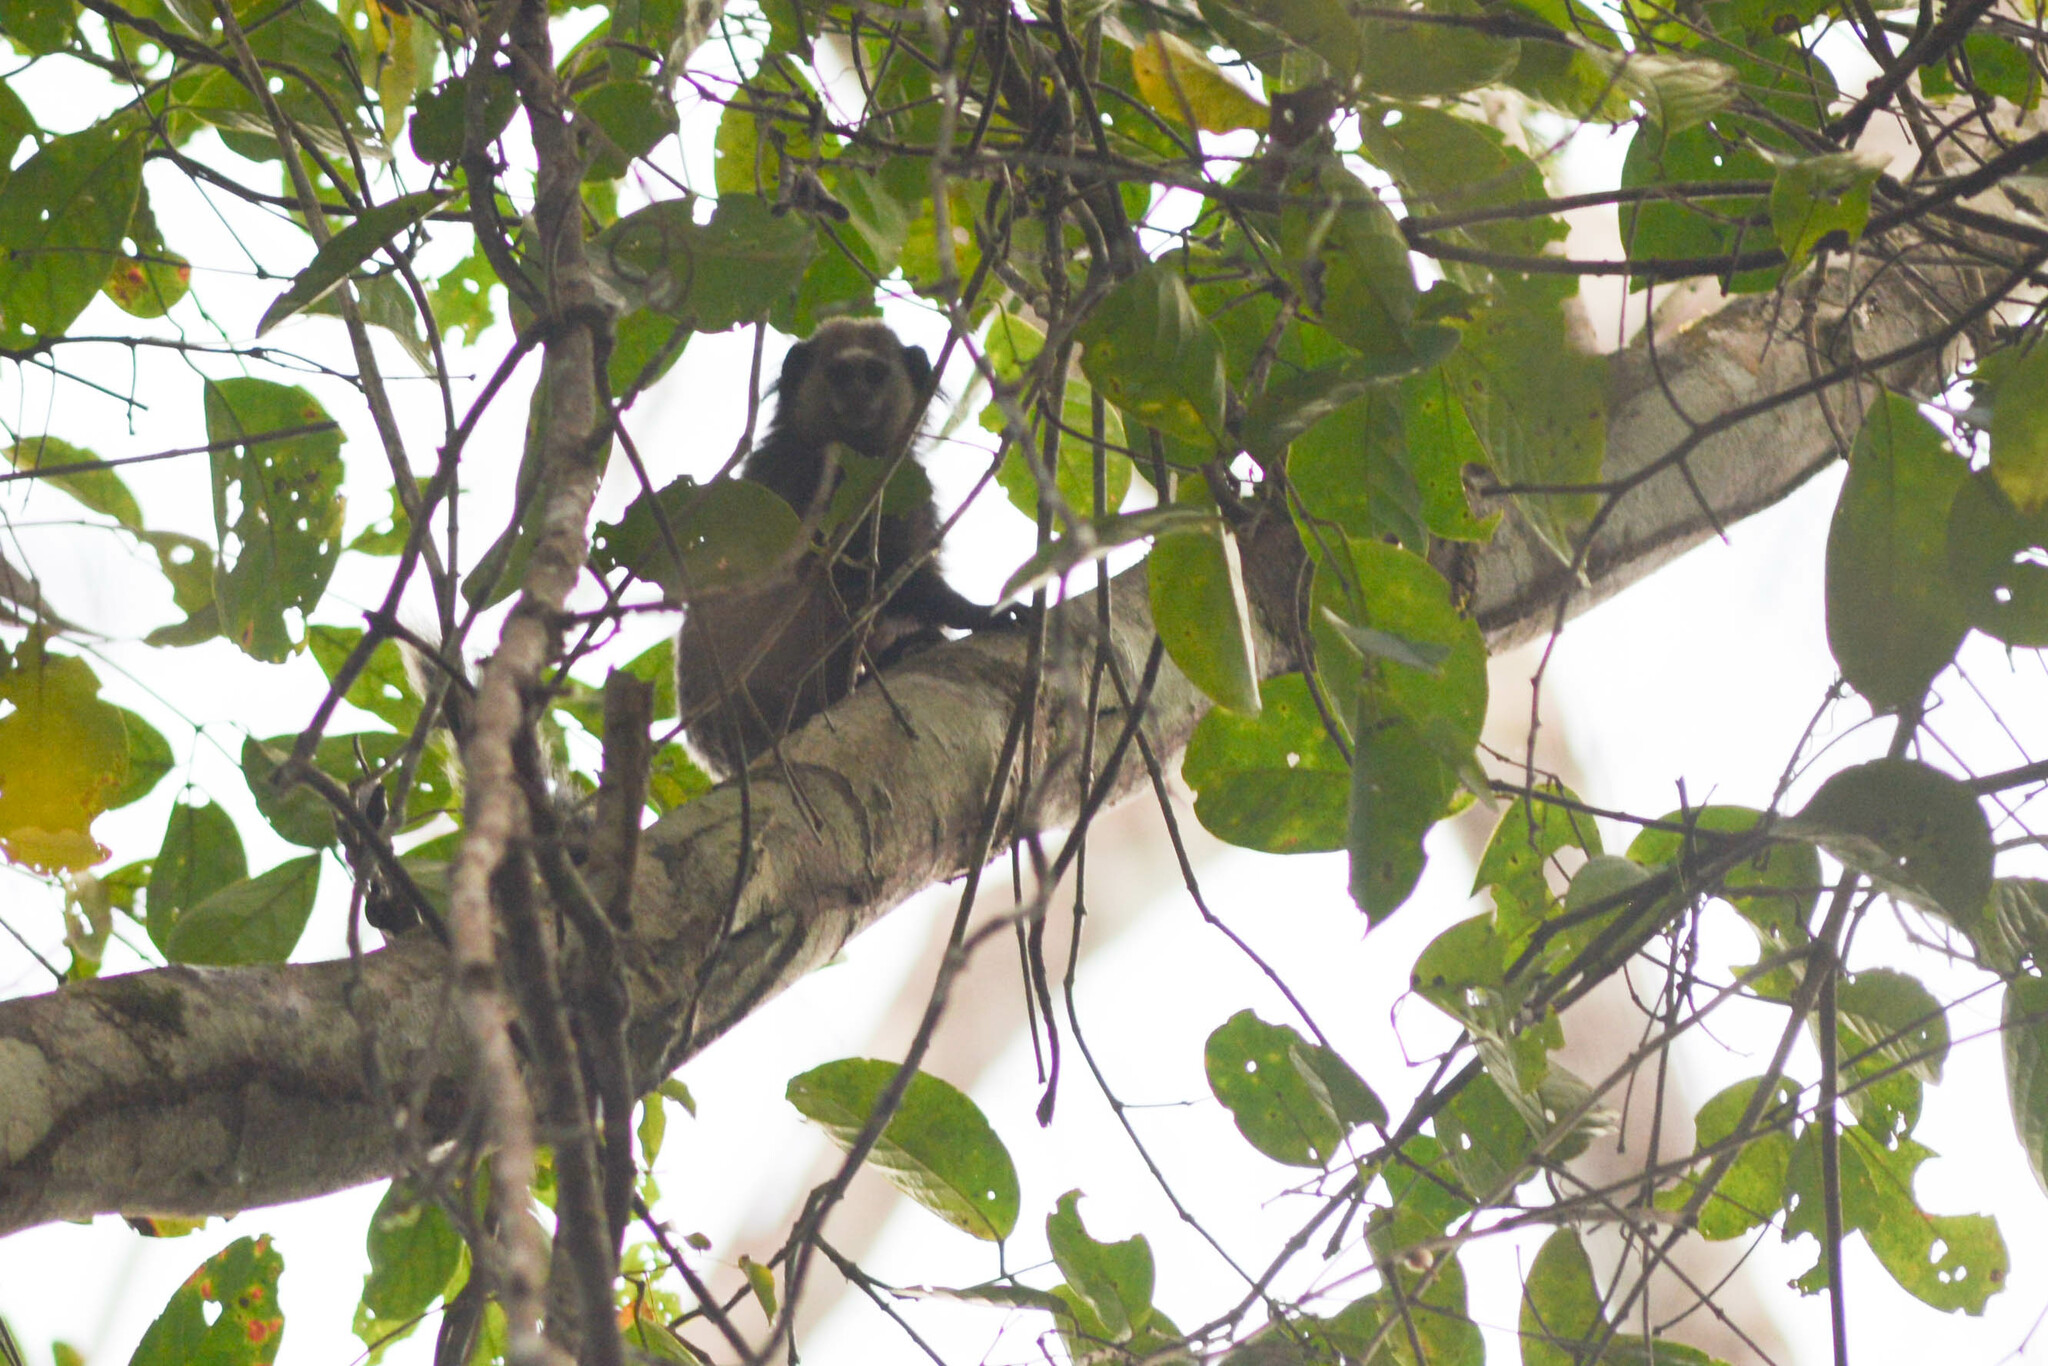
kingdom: Animalia
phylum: Chordata
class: Mammalia
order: Primates
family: Callitrichidae
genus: Callithrix
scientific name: Callithrix kuhlii
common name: Wied's marmoset
